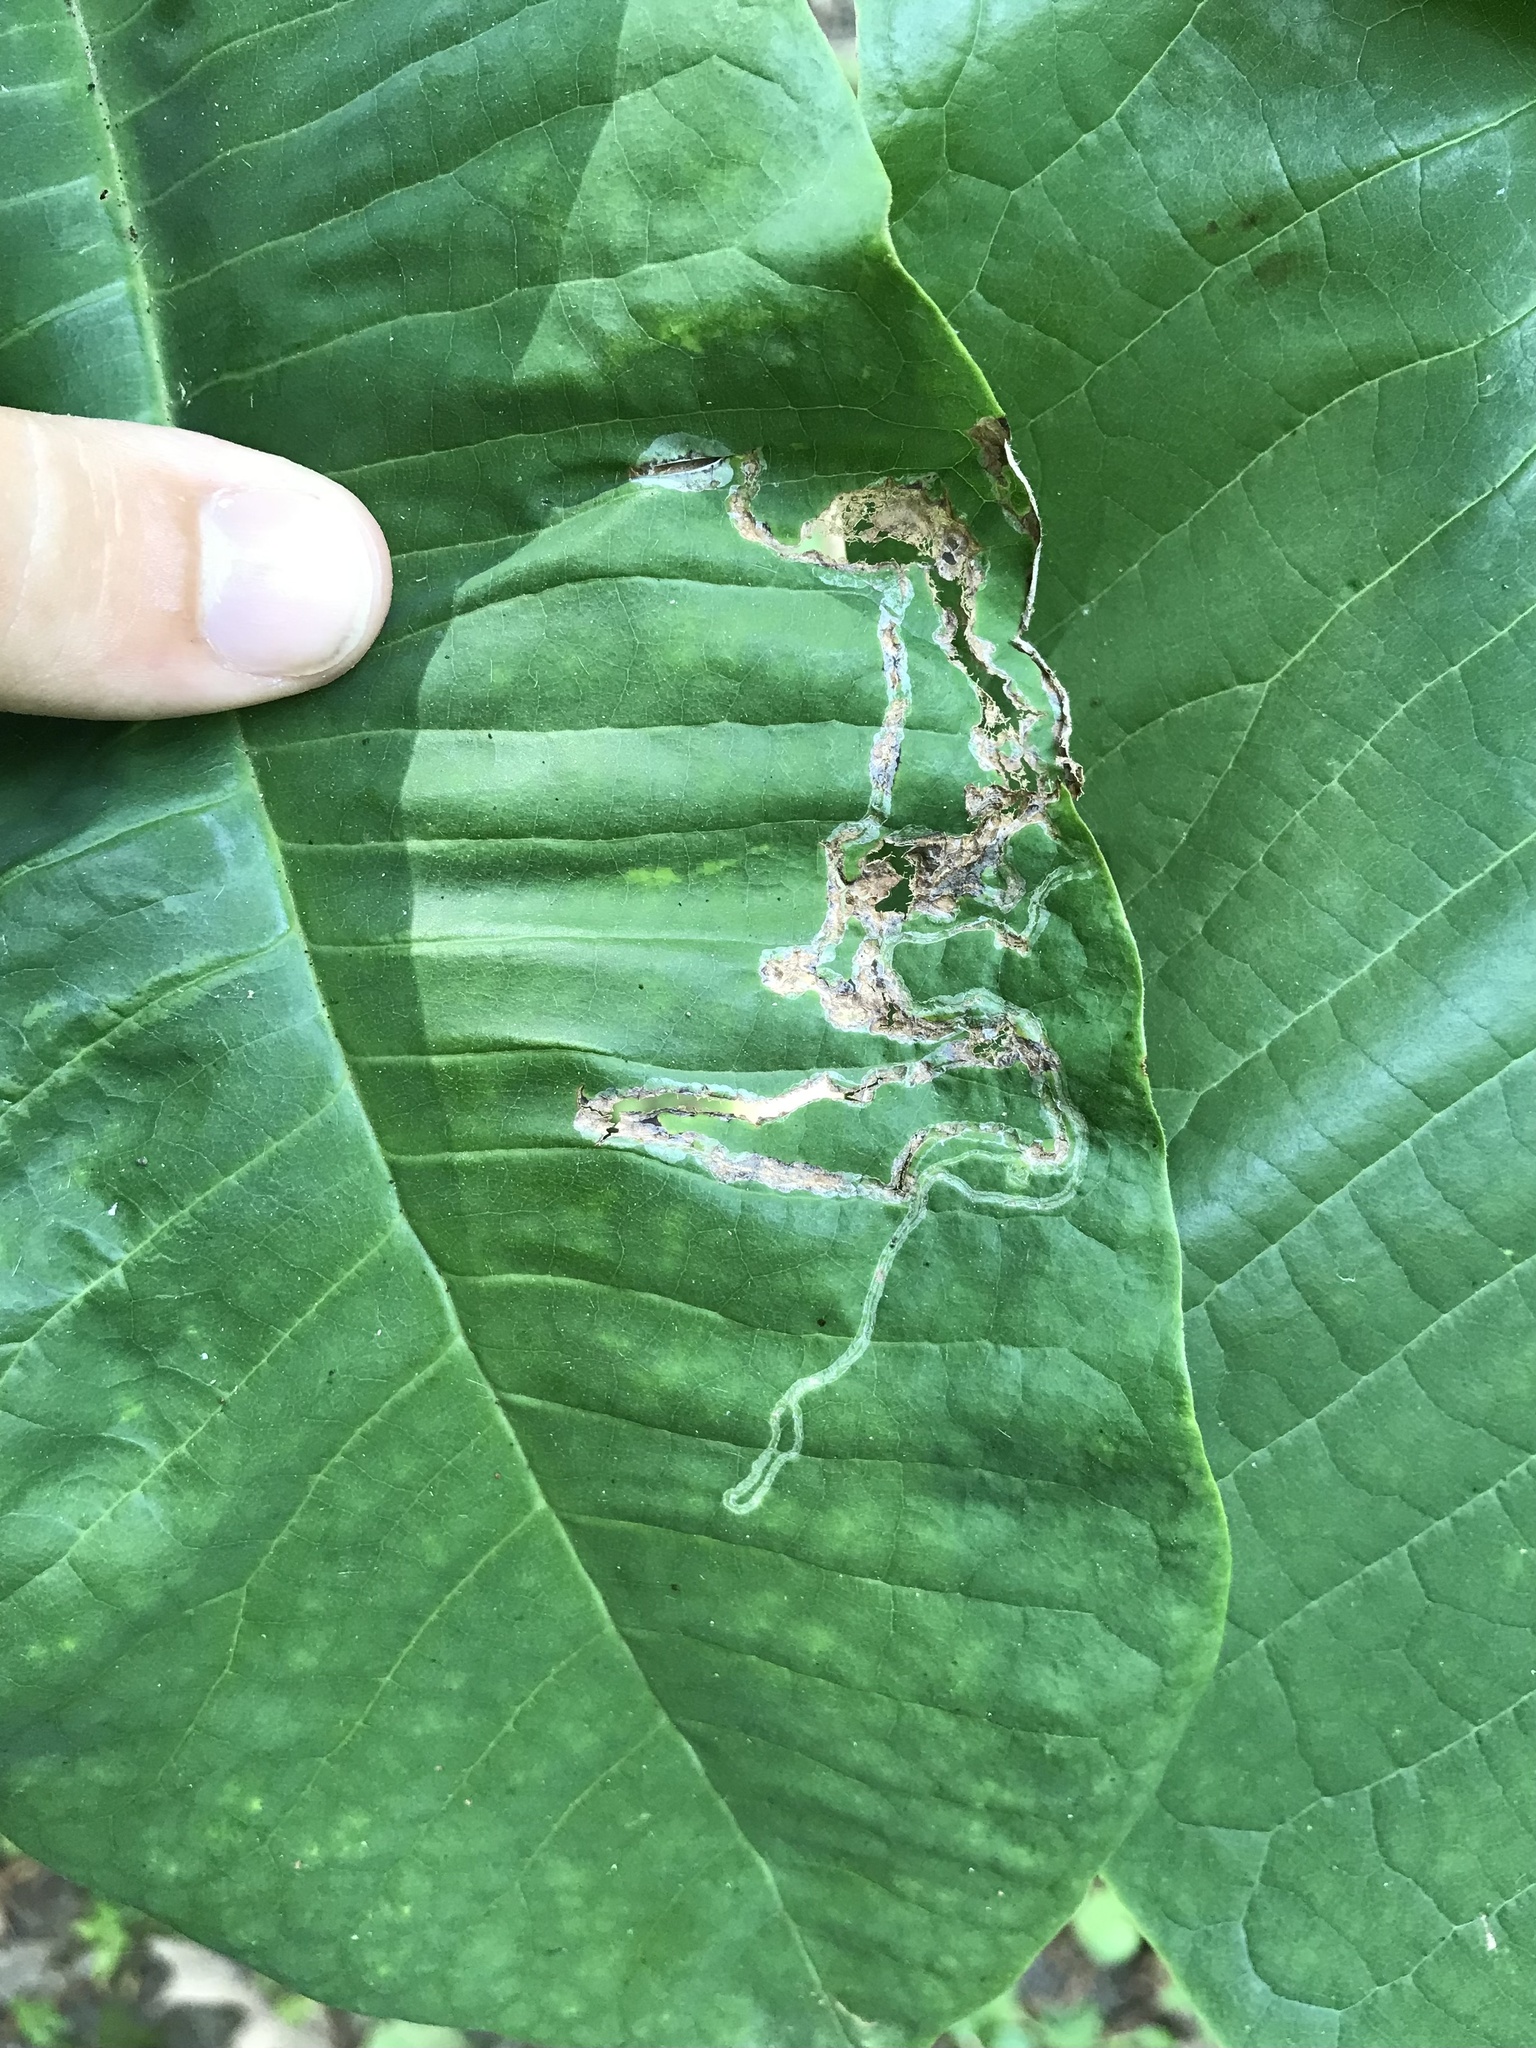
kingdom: Animalia
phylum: Arthropoda
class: Insecta
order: Lepidoptera
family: Gracillariidae
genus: Phyllocnistis
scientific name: Phyllocnistis liriodendronella
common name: Tulip tree leaf miner
